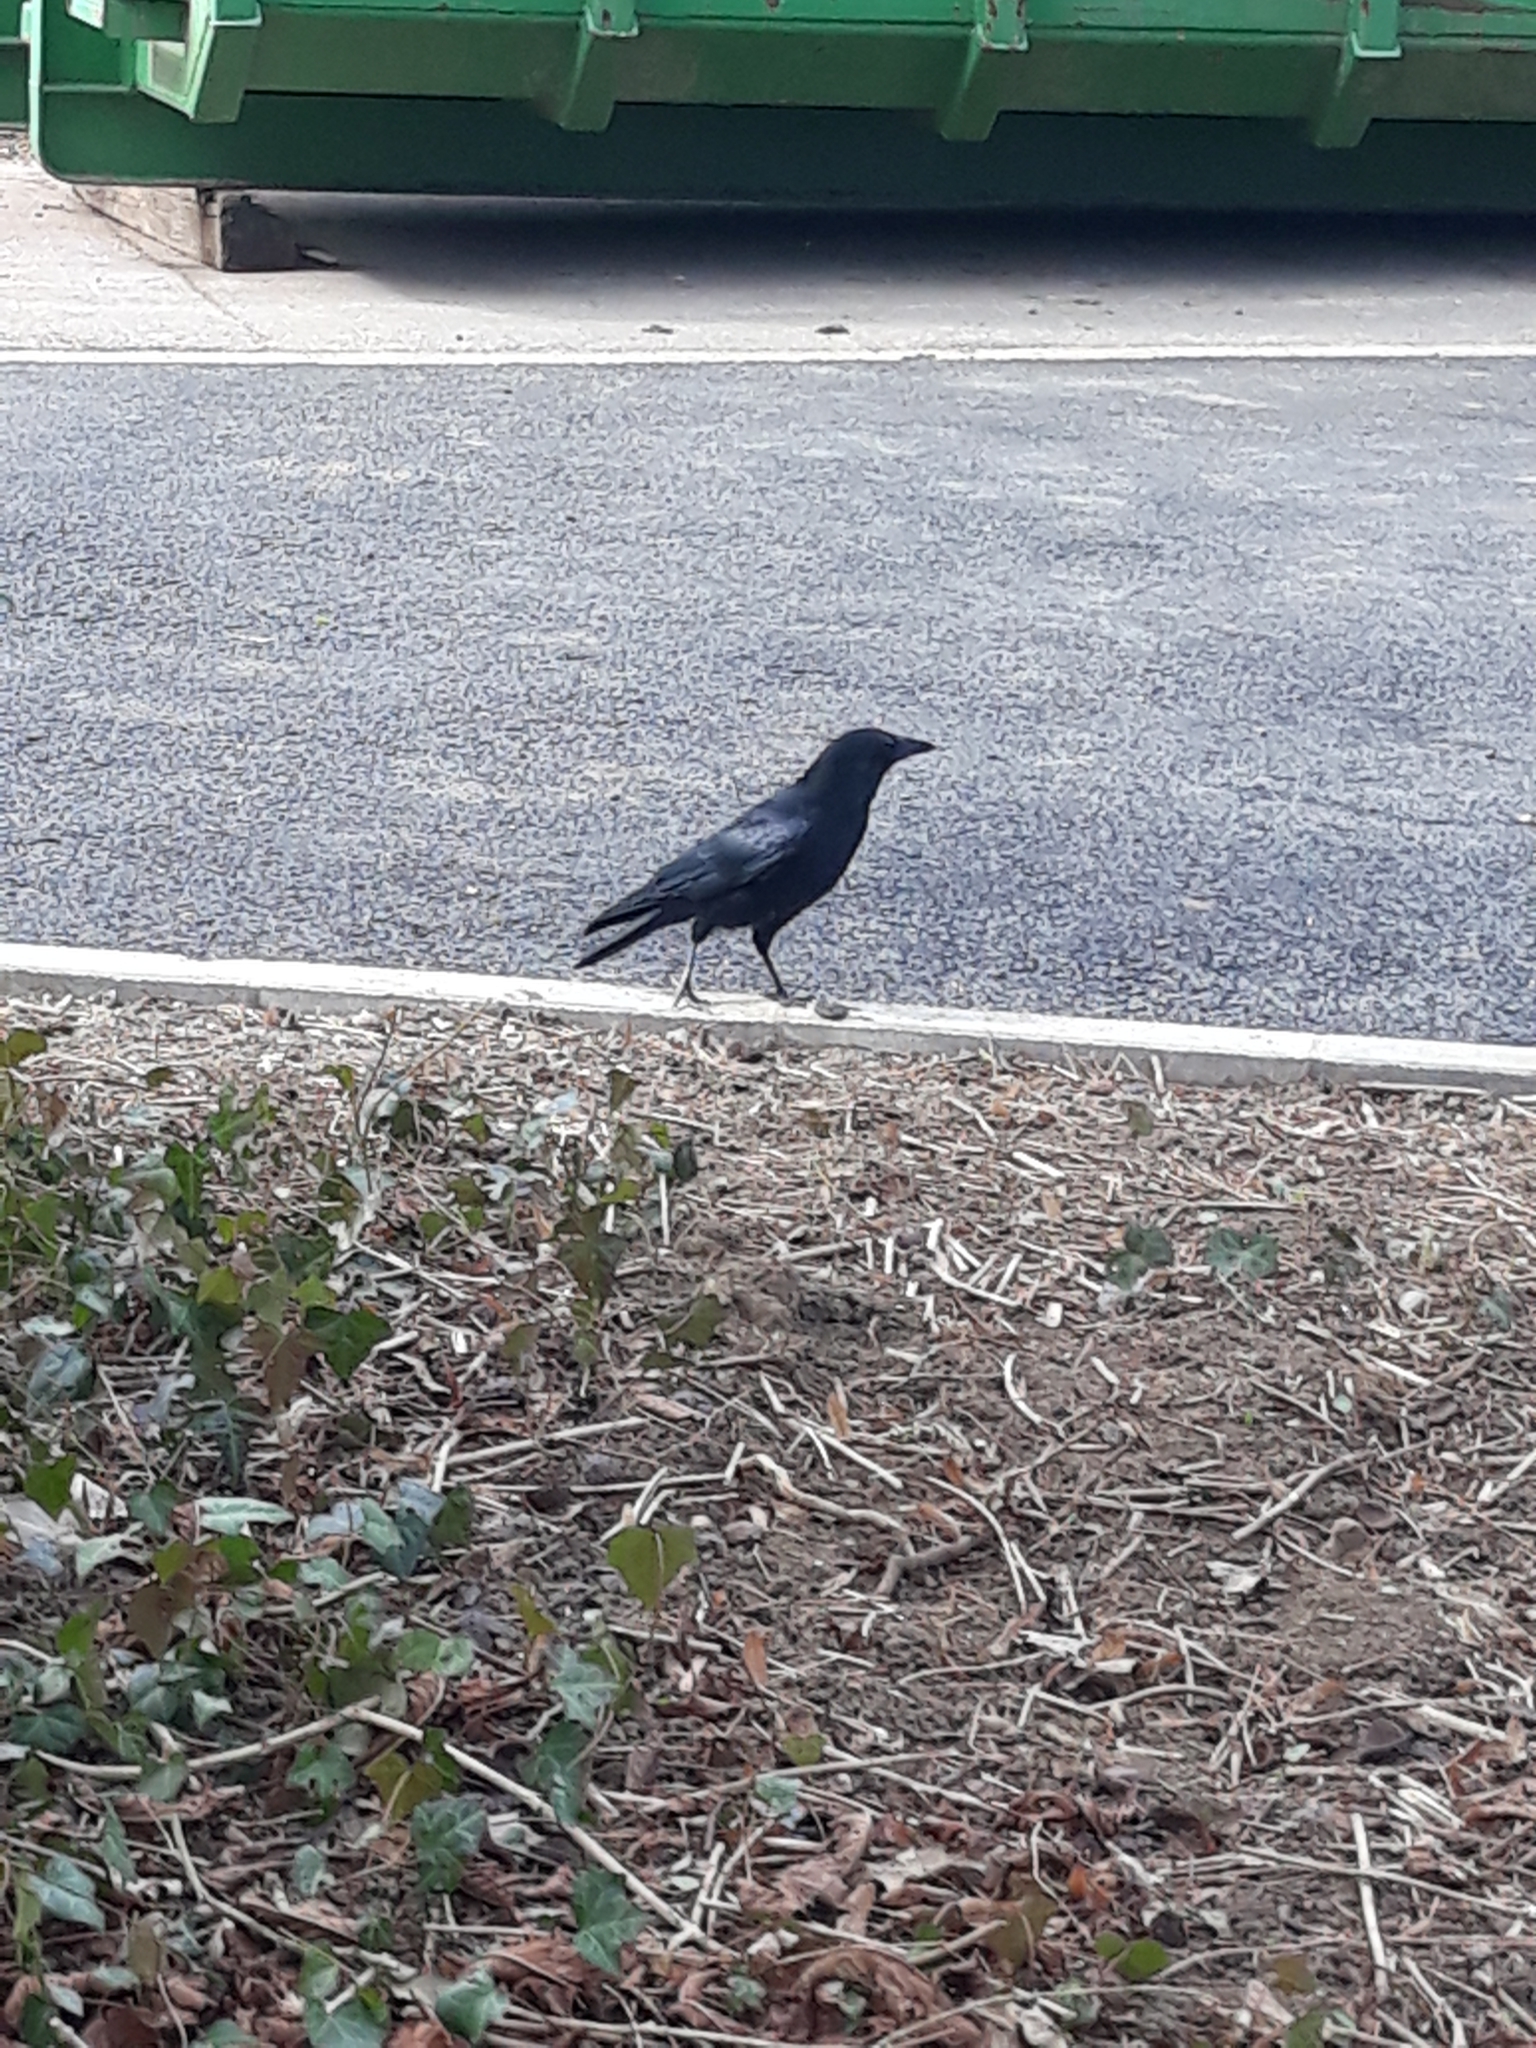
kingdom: Animalia
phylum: Chordata
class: Aves
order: Passeriformes
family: Corvidae
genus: Corvus
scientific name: Corvus corone
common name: Carrion crow
